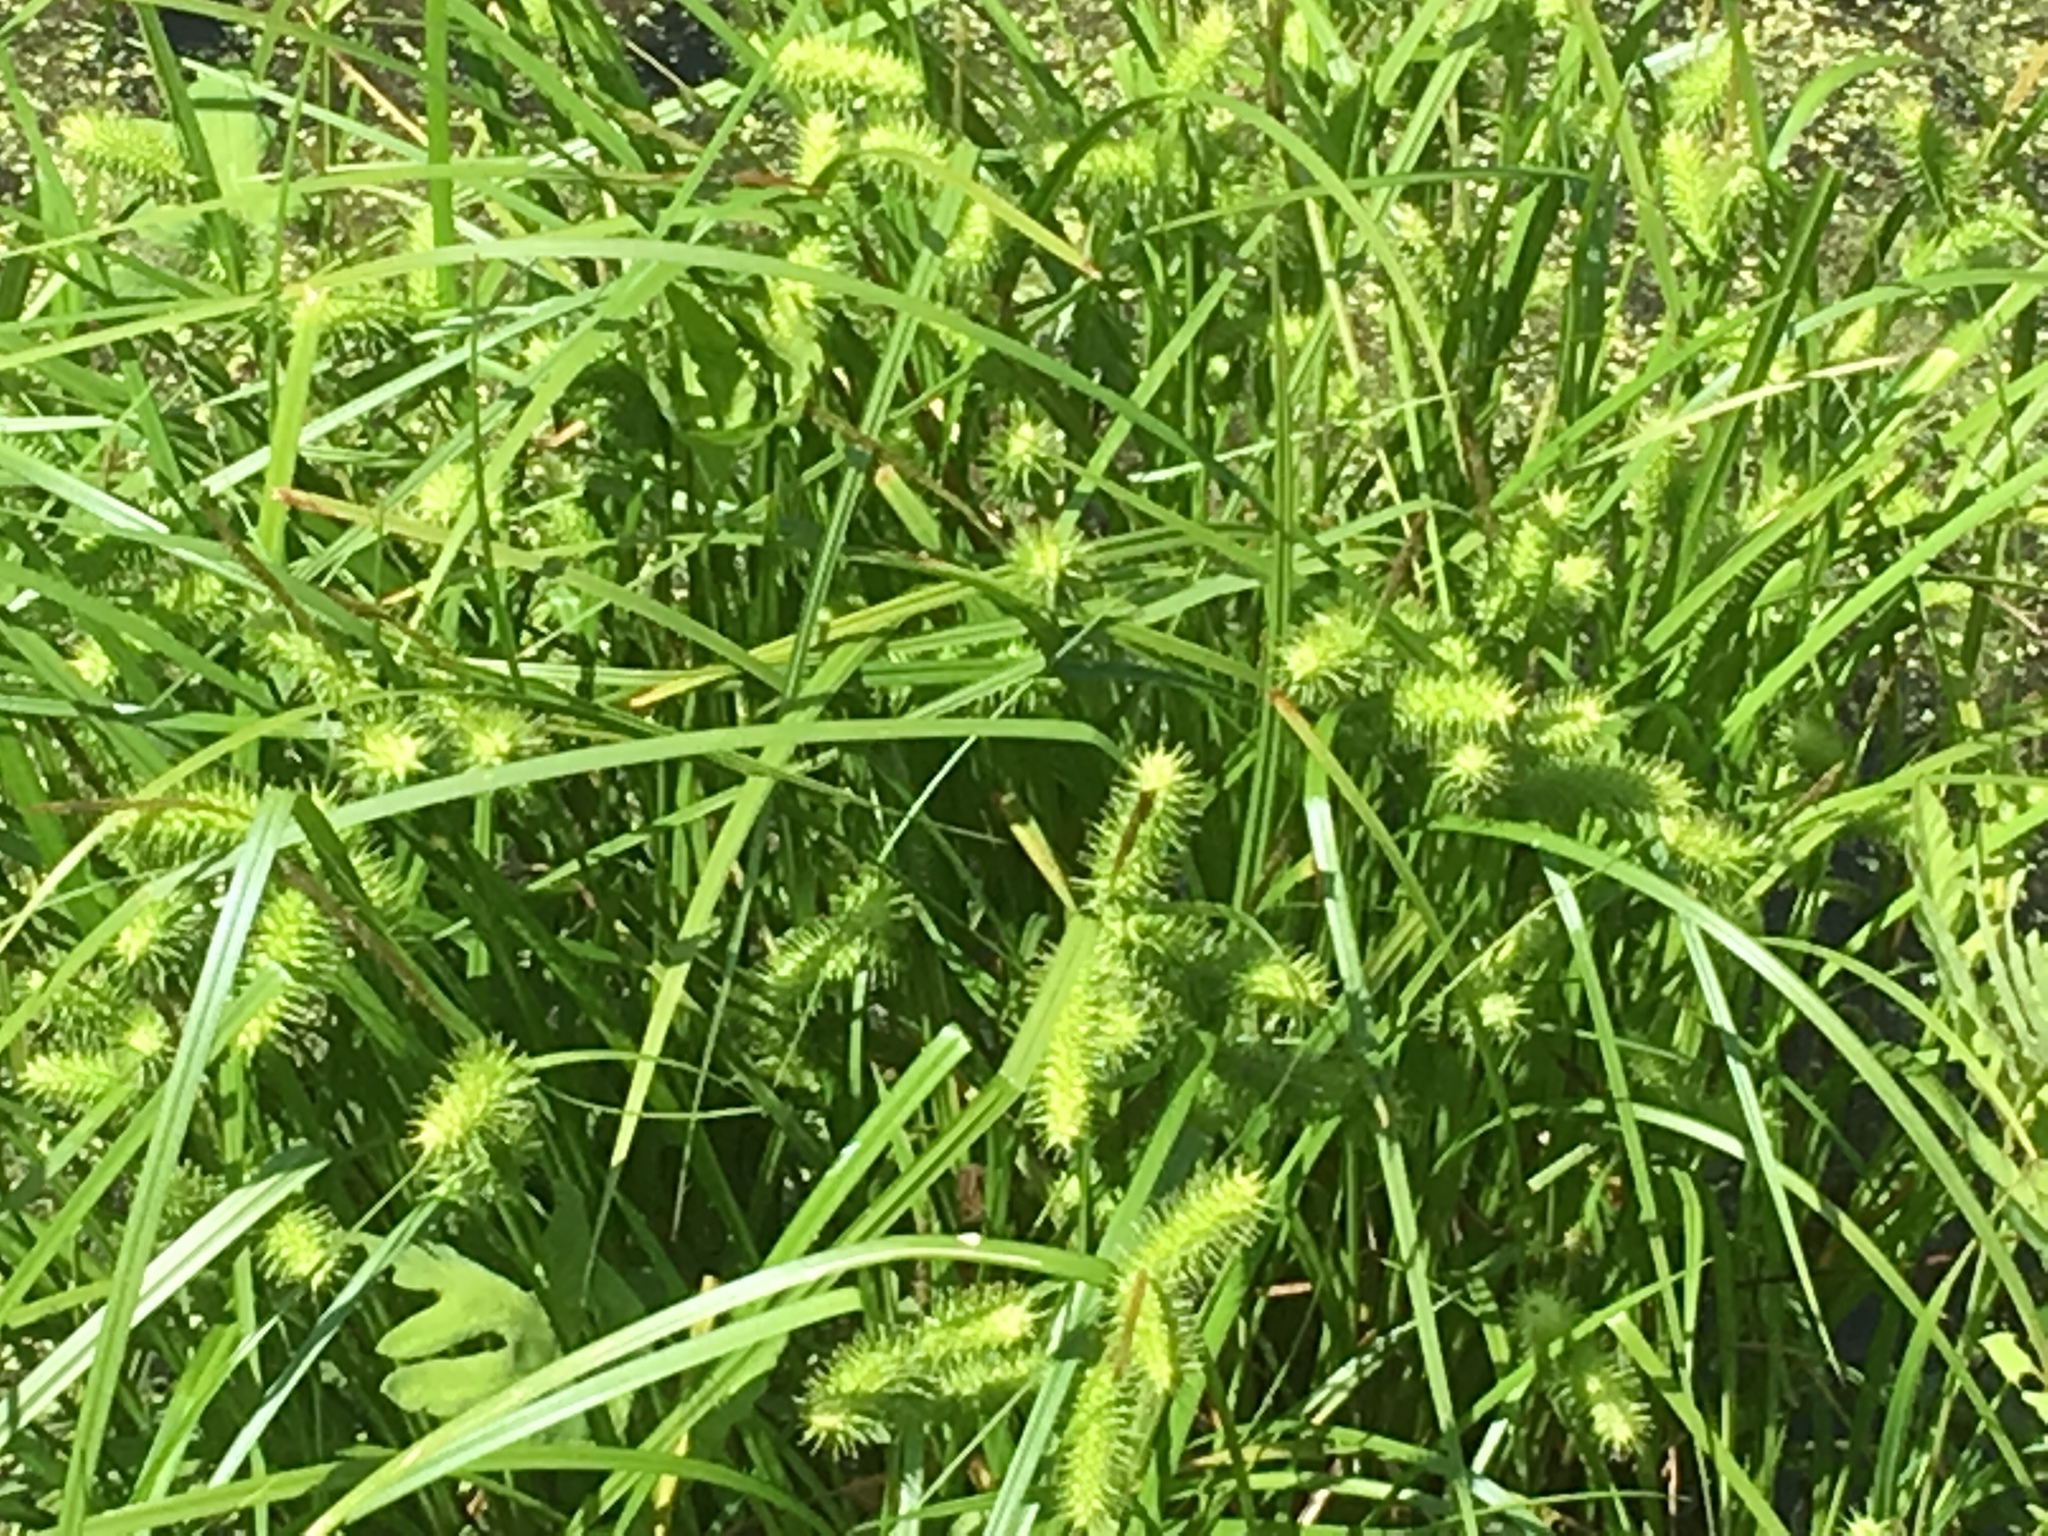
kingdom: Plantae
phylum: Tracheophyta
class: Liliopsida
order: Poales
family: Cyperaceae
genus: Carex
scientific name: Carex lurida
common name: Sallow sedge
